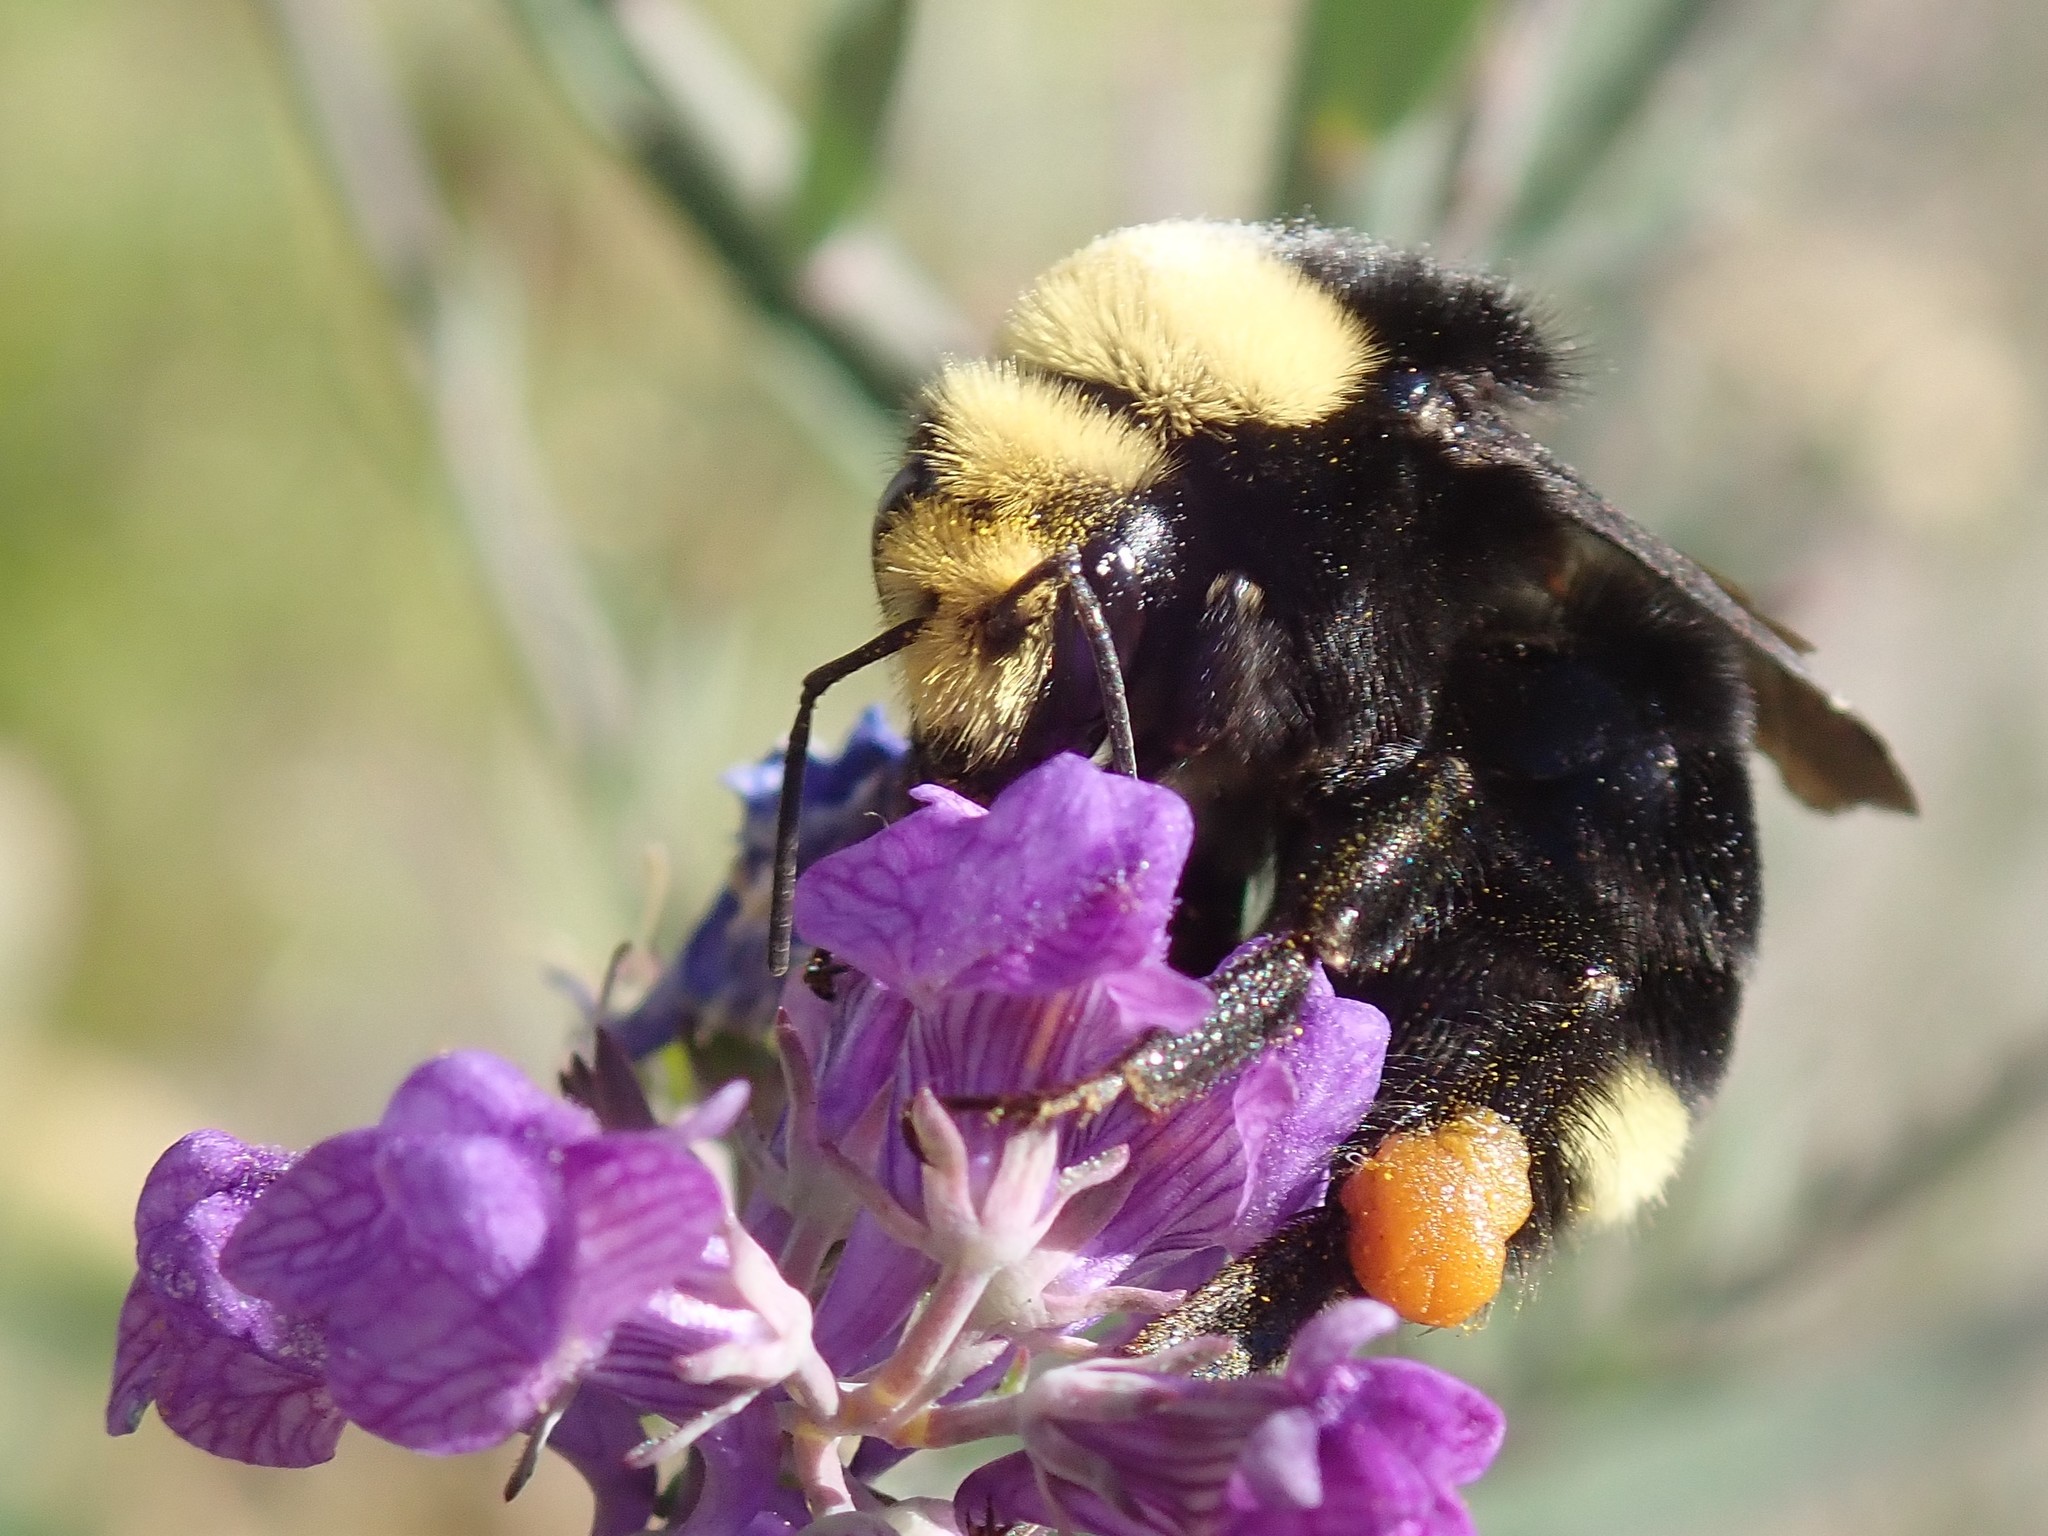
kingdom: Animalia
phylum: Arthropoda
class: Insecta
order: Hymenoptera
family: Apidae
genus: Bombus
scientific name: Bombus vosnesenskii
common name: Vosnesensky bumble bee
